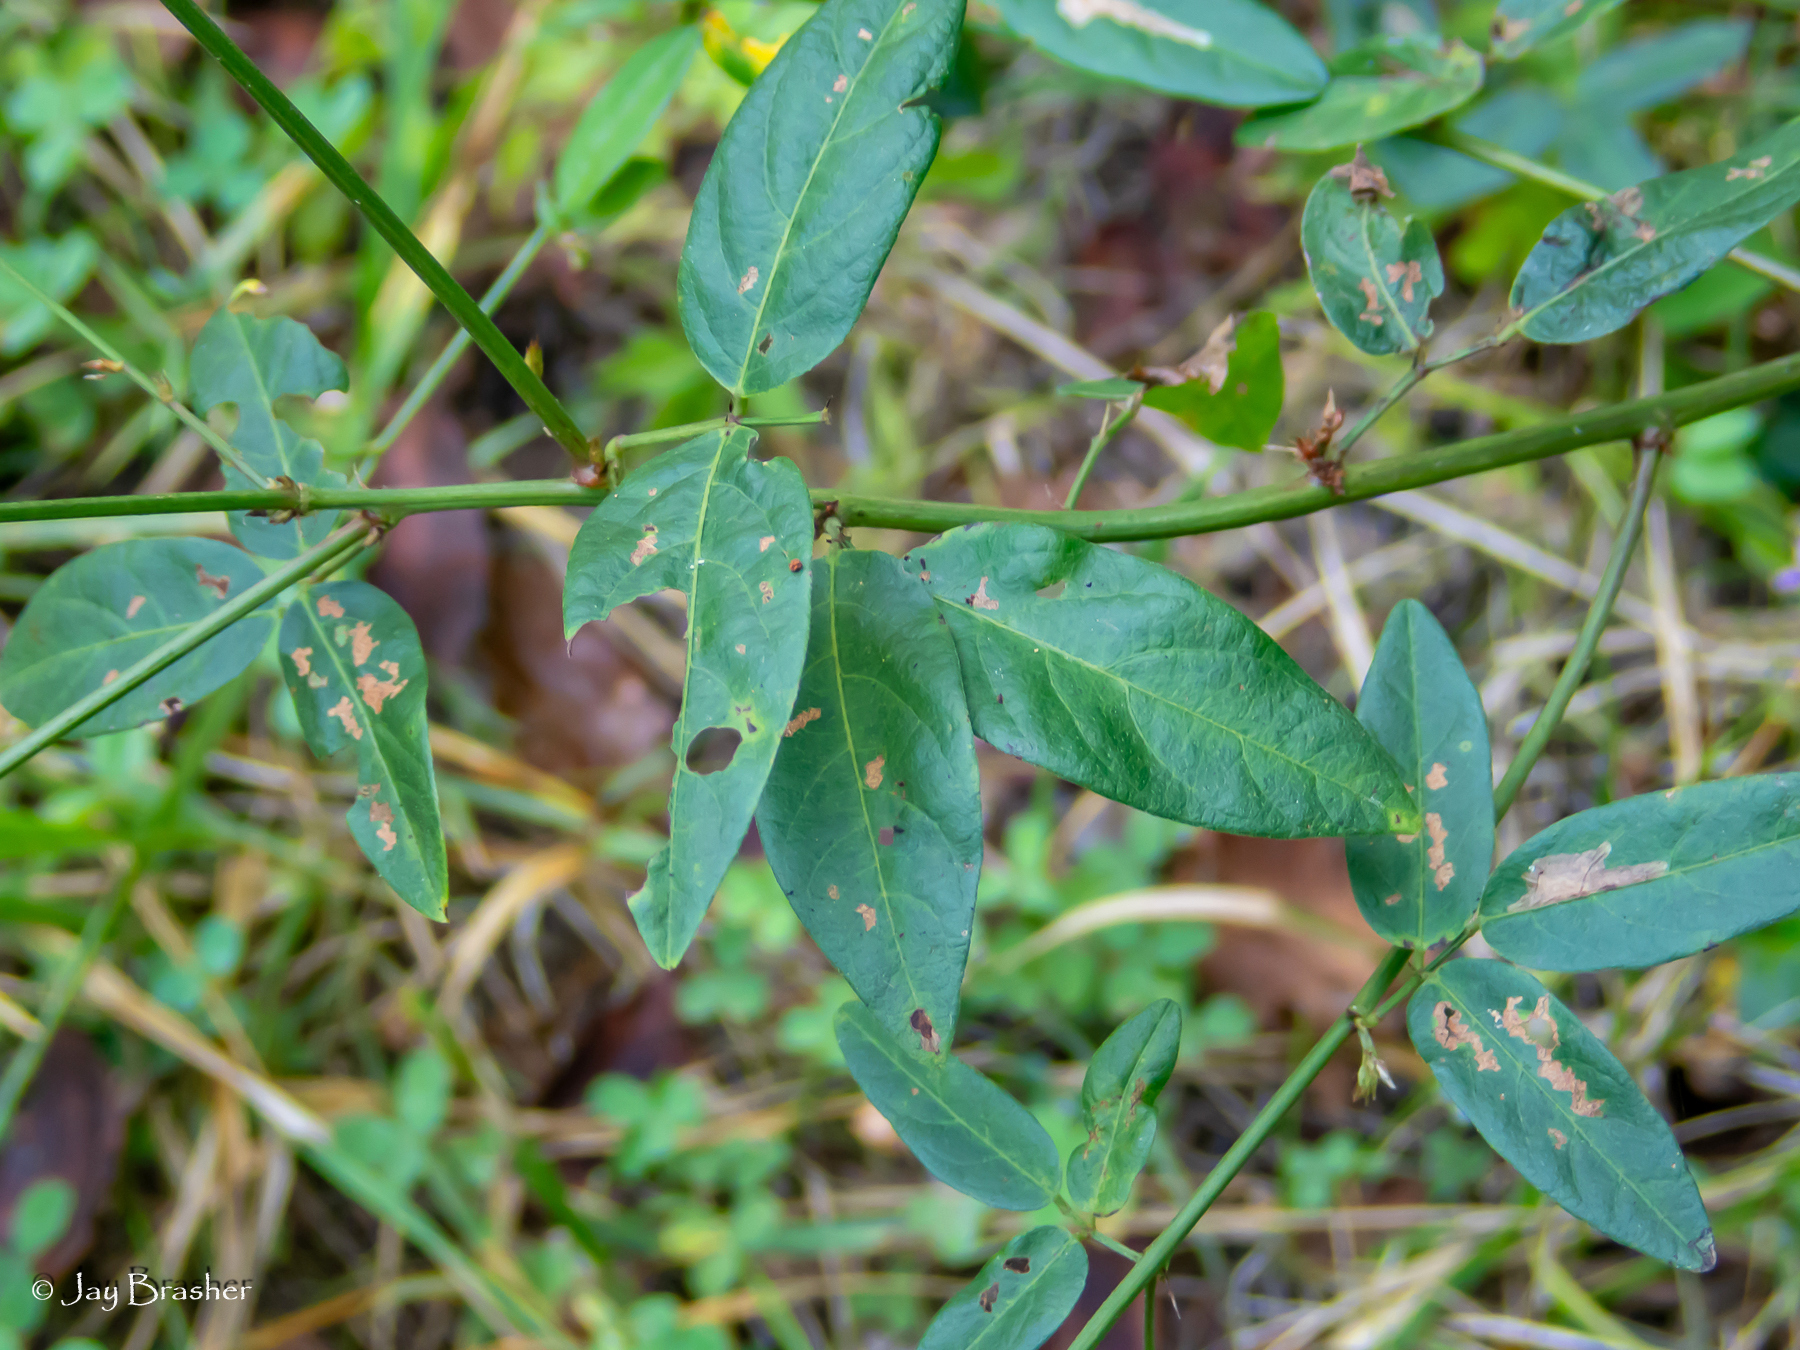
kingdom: Plantae
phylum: Tracheophyta
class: Magnoliopsida
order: Fabales
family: Fabaceae
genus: Desmodium
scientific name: Desmodium paniculatum
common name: Panicled tick-clover
